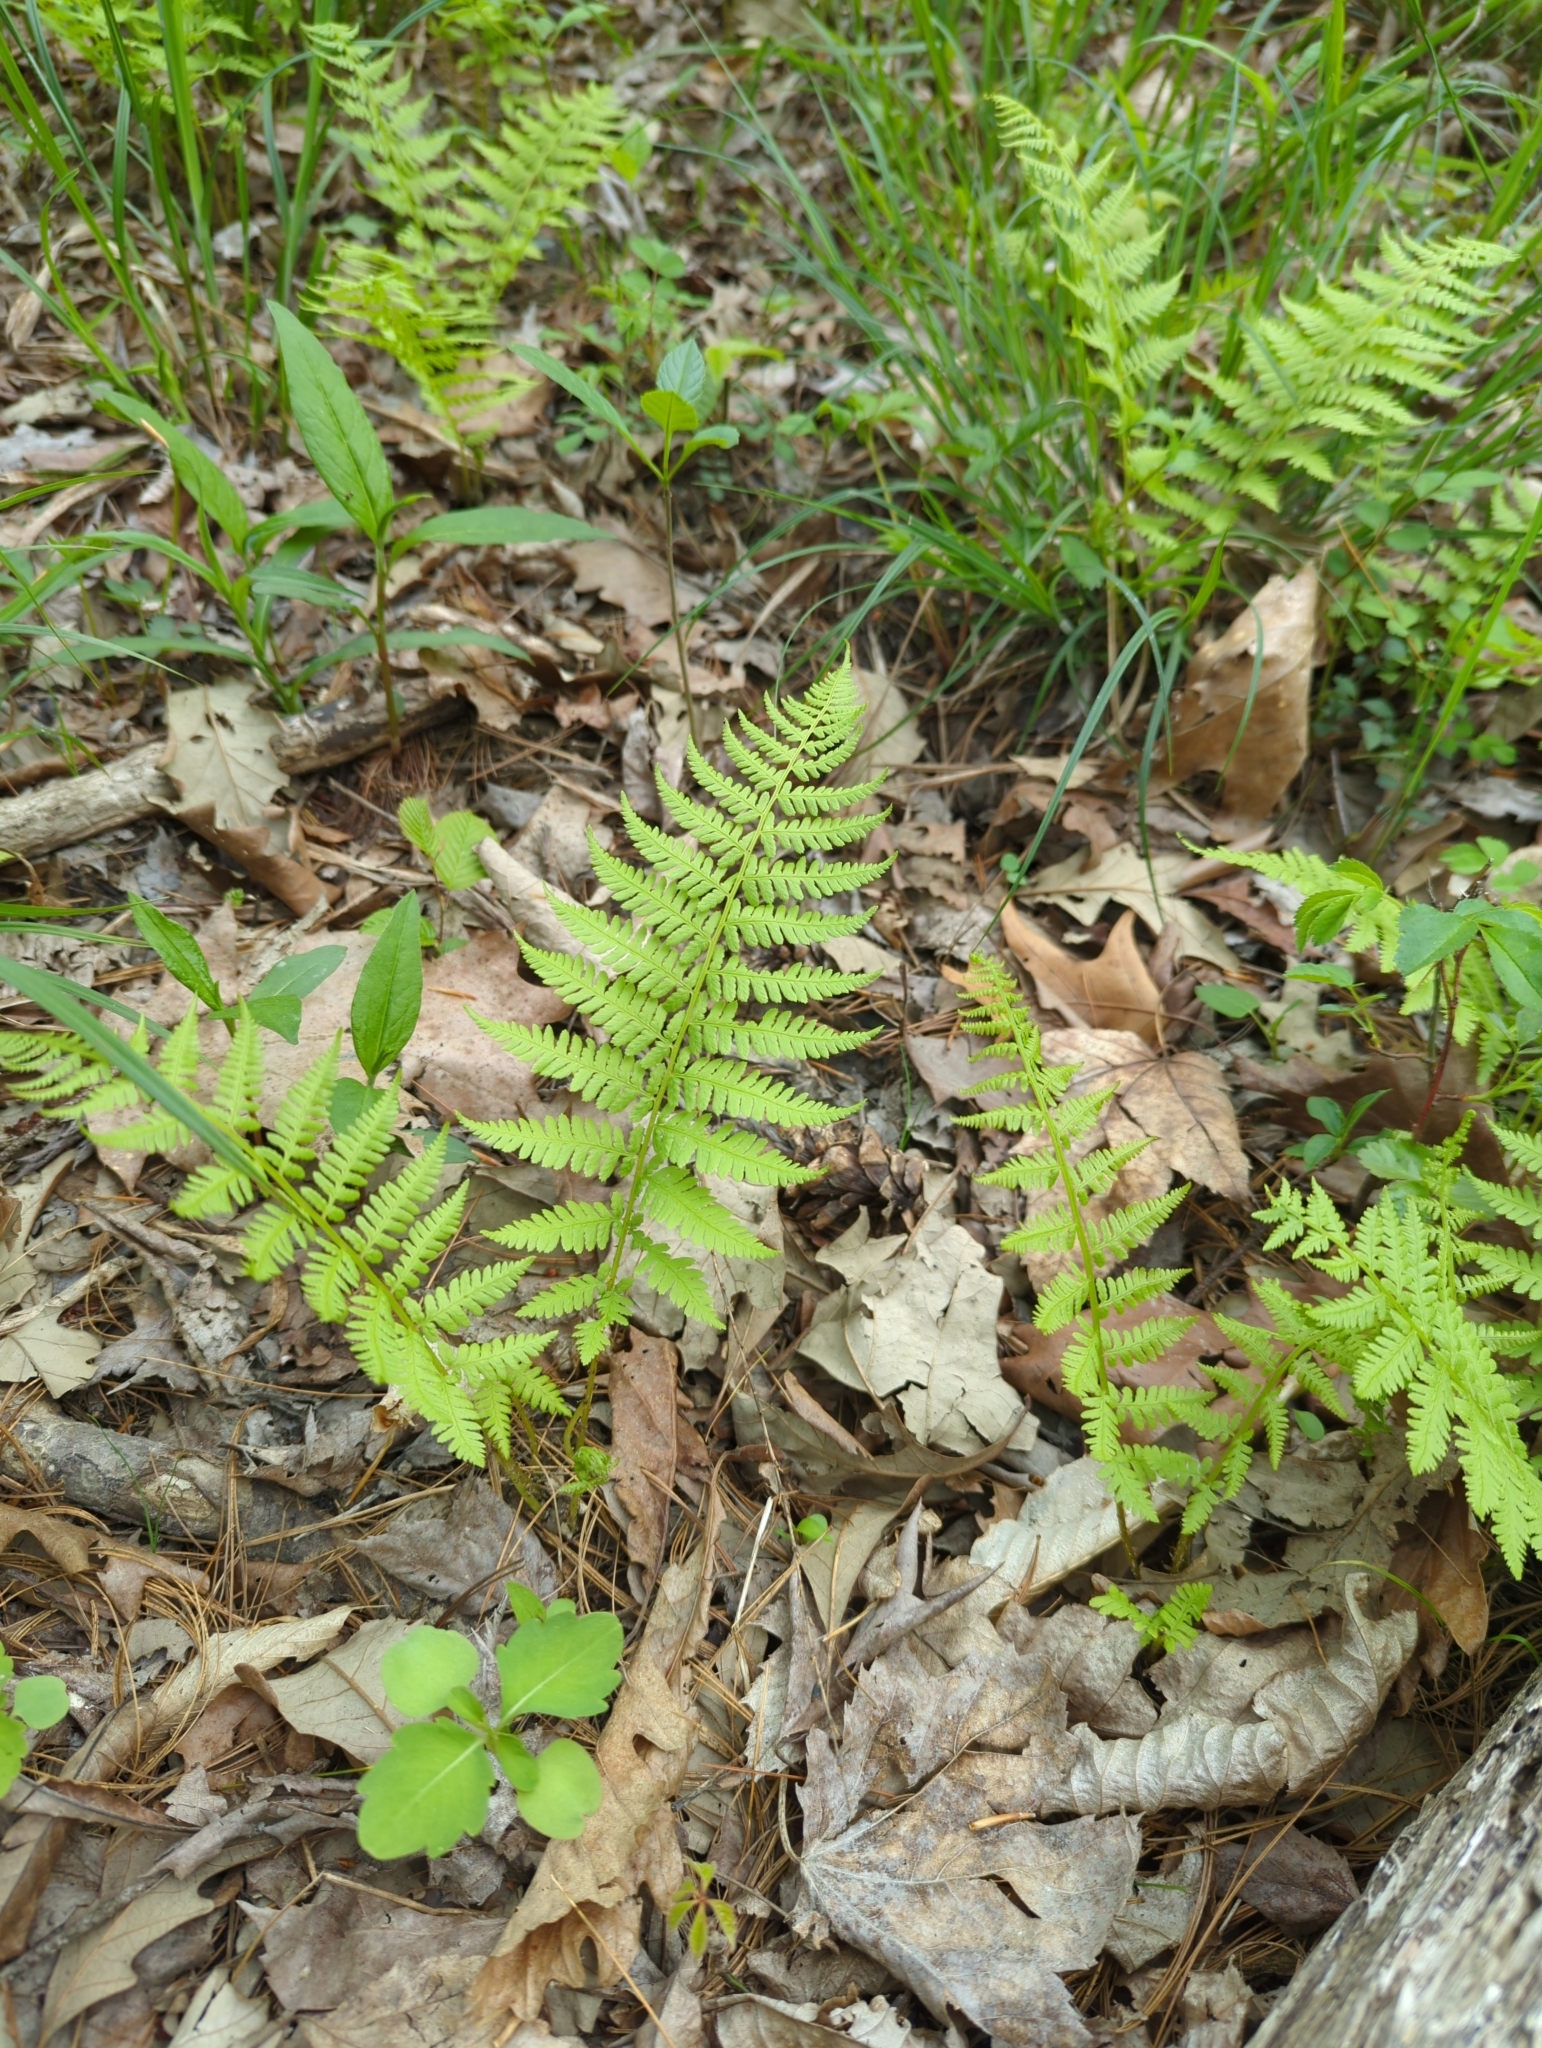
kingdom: Plantae
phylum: Tracheophyta
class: Polypodiopsida
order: Polypodiales
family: Thelypteridaceae
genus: Amauropelta
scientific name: Amauropelta noveboracensis
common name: New york fern
